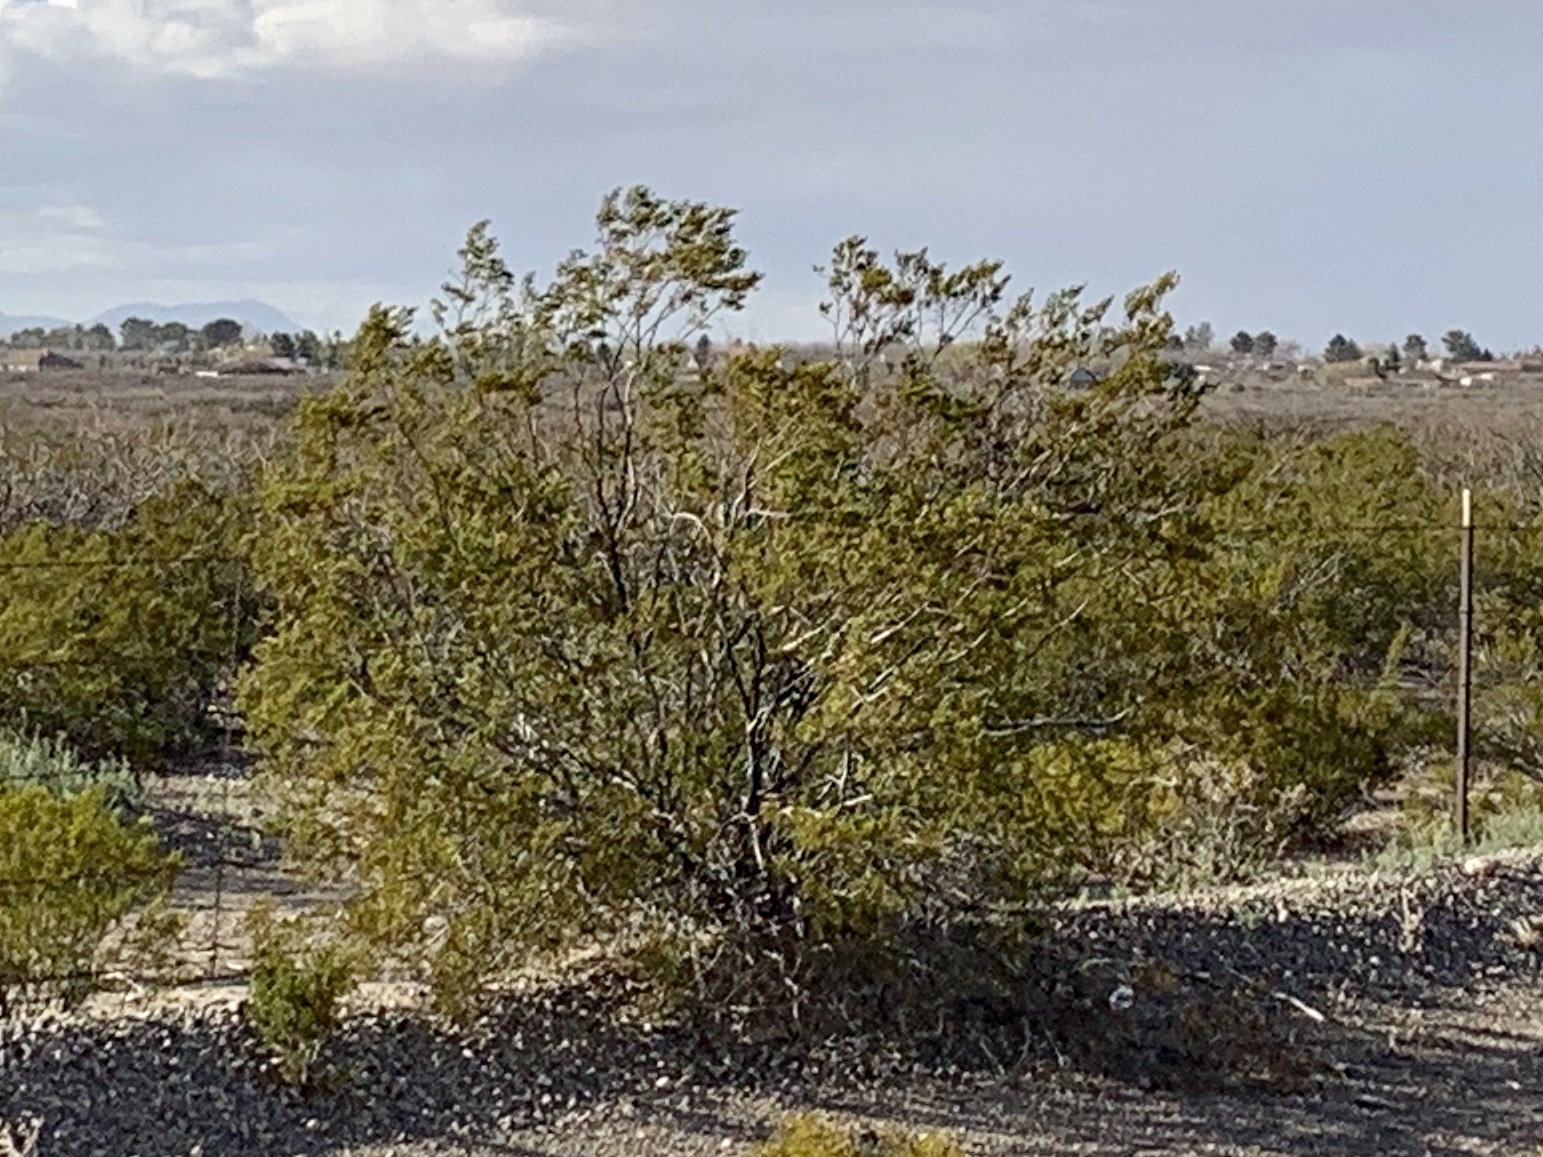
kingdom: Plantae
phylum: Tracheophyta
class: Magnoliopsida
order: Zygophyllales
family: Zygophyllaceae
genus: Larrea
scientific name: Larrea tridentata
